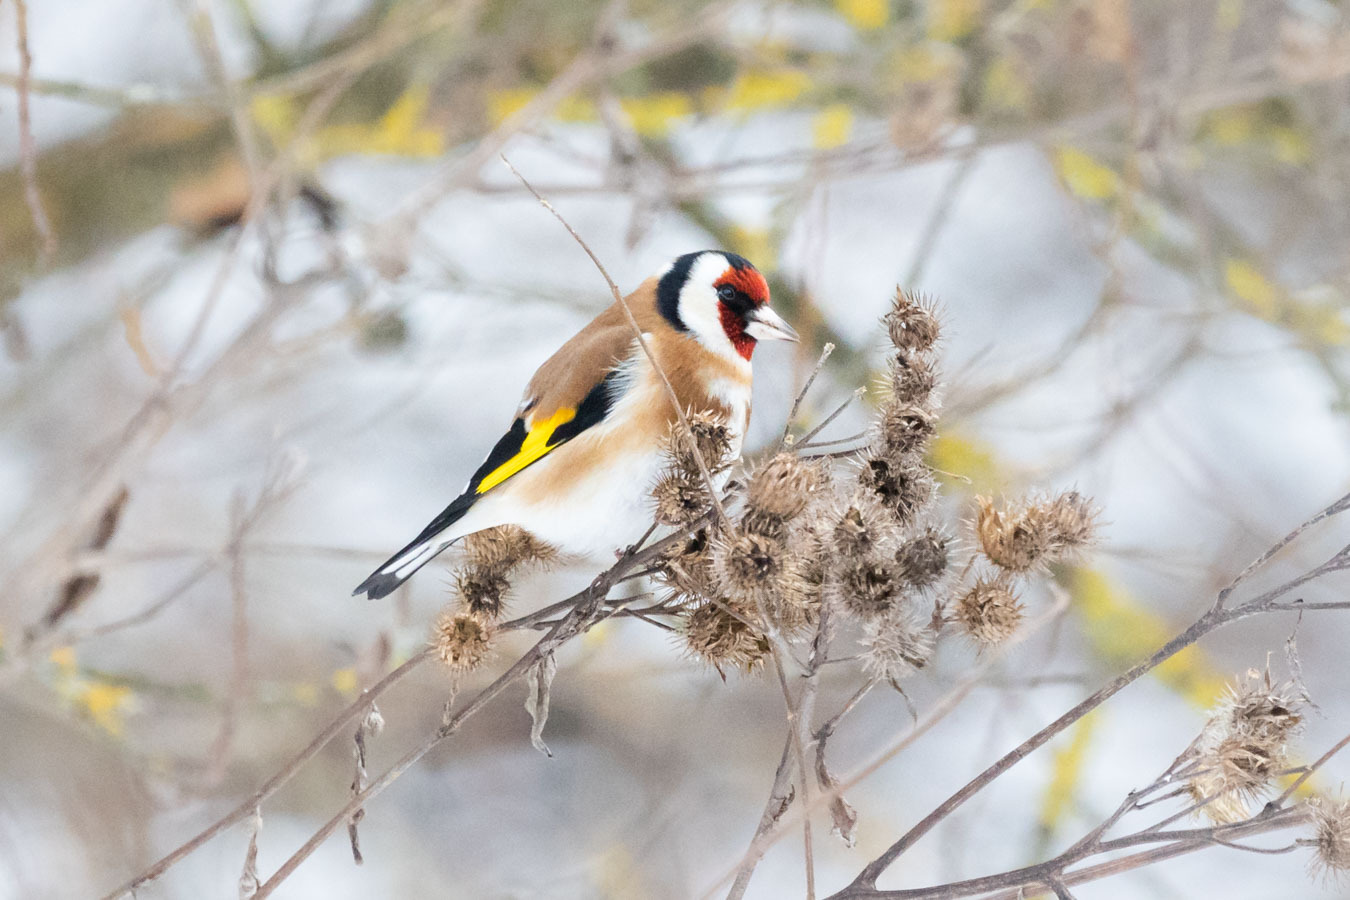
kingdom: Animalia
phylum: Chordata
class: Aves
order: Passeriformes
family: Fringillidae
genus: Carduelis
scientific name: Carduelis carduelis
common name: European goldfinch
